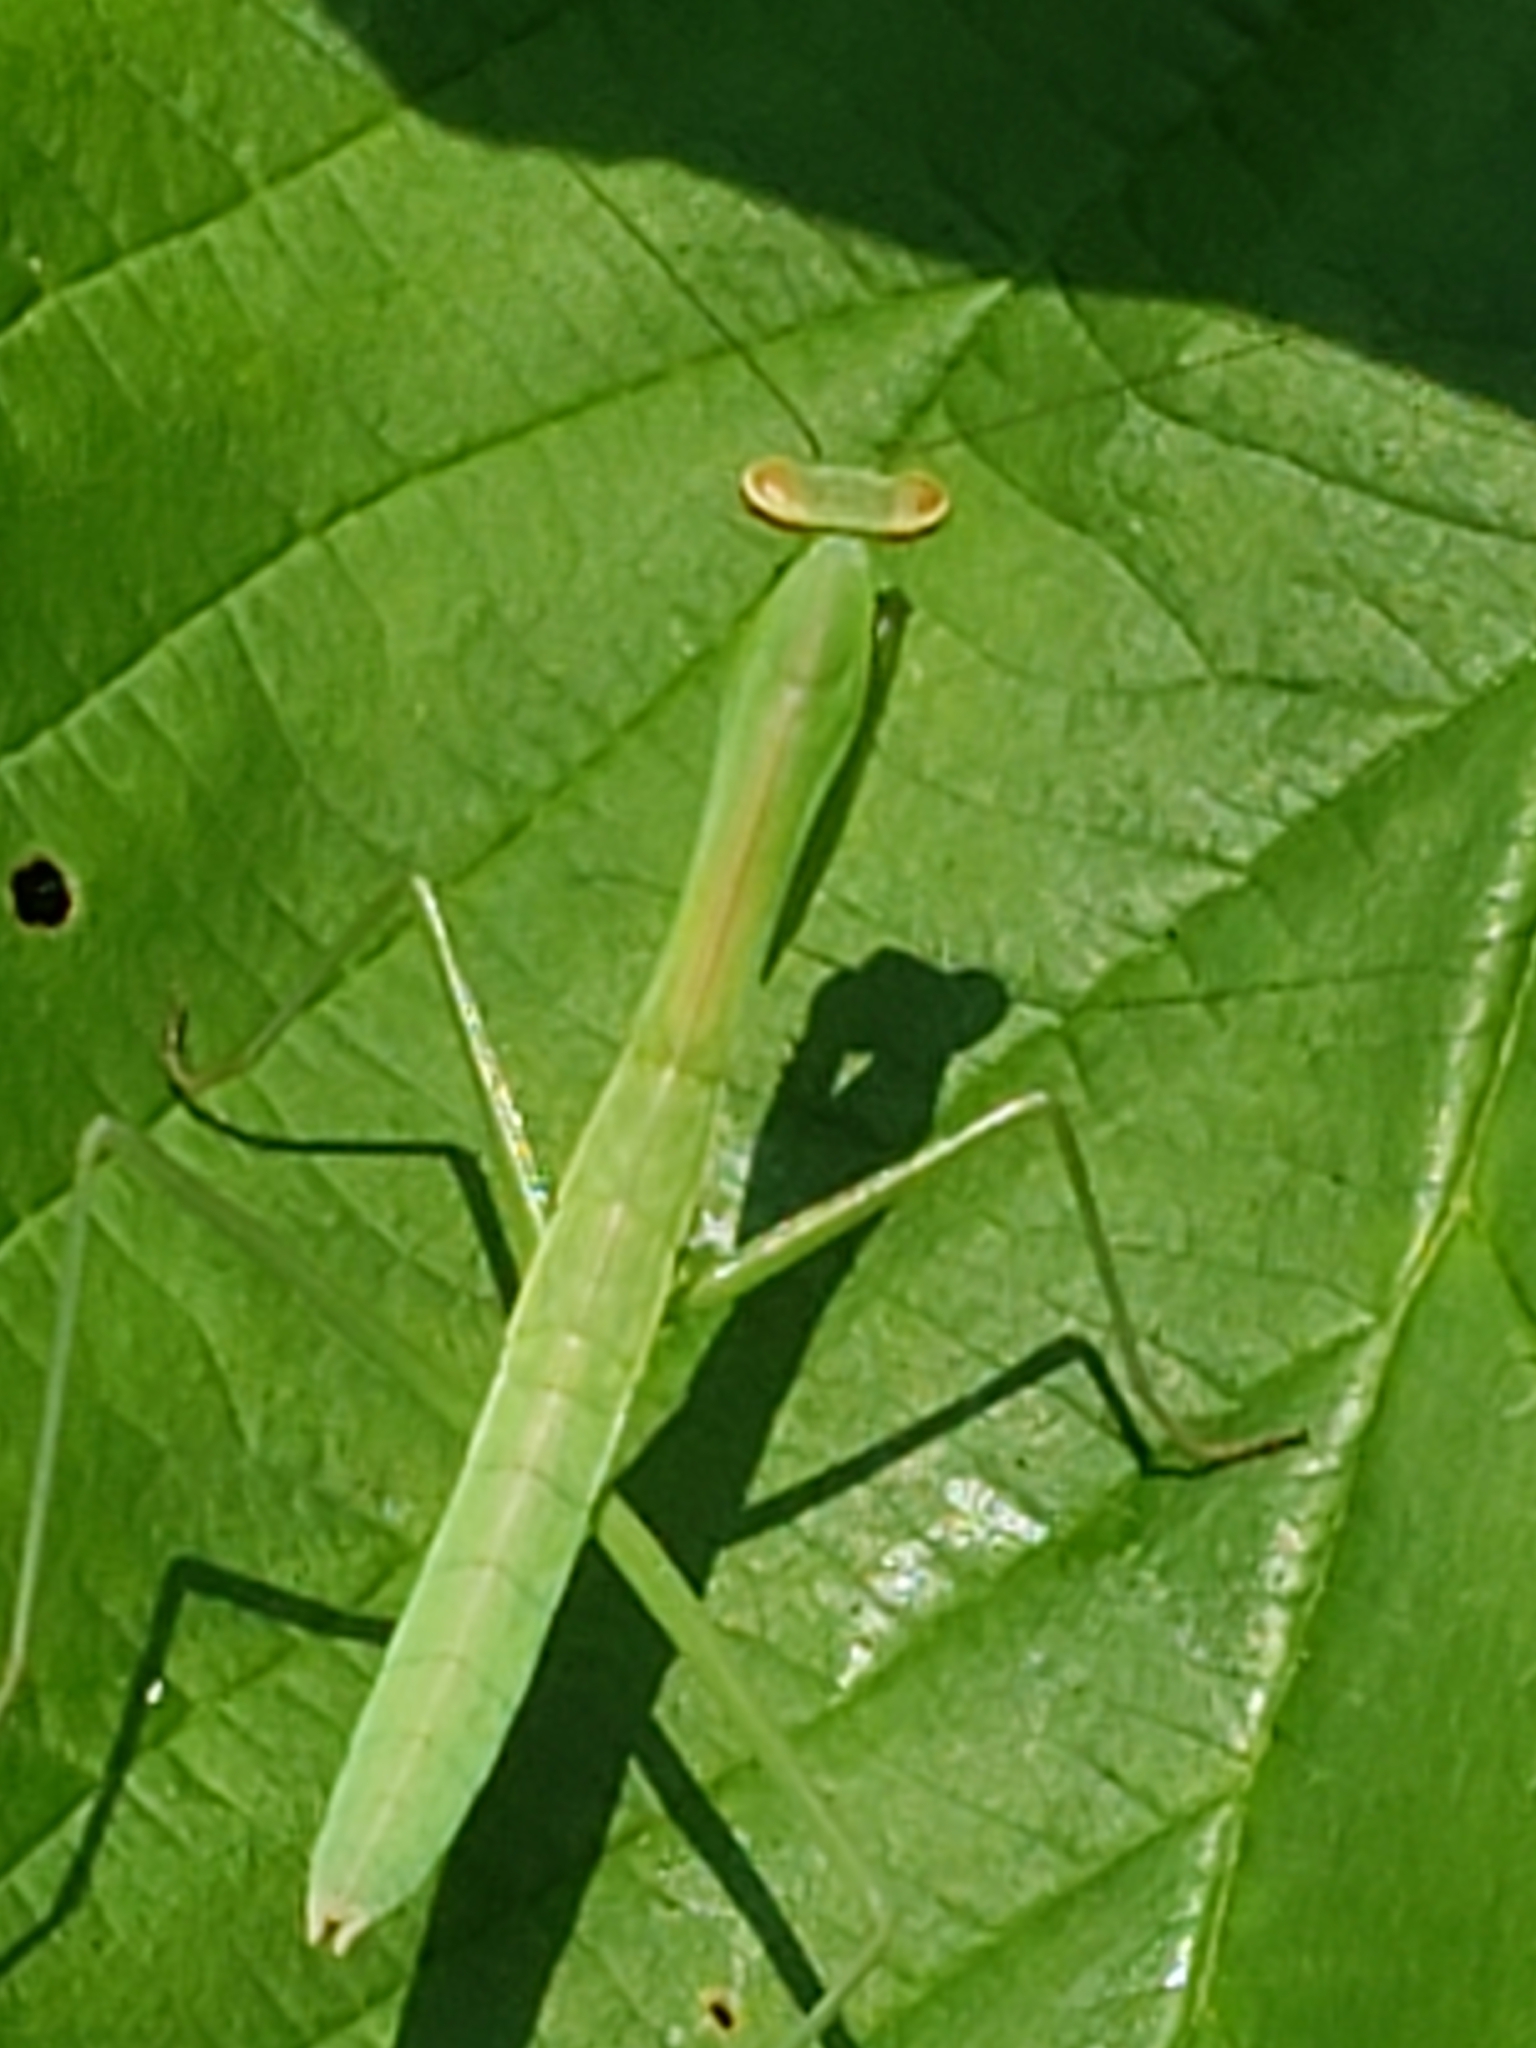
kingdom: Animalia
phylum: Arthropoda
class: Insecta
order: Mantodea
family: Mantidae
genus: Tenodera
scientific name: Tenodera sinensis
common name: Chinese mantis
